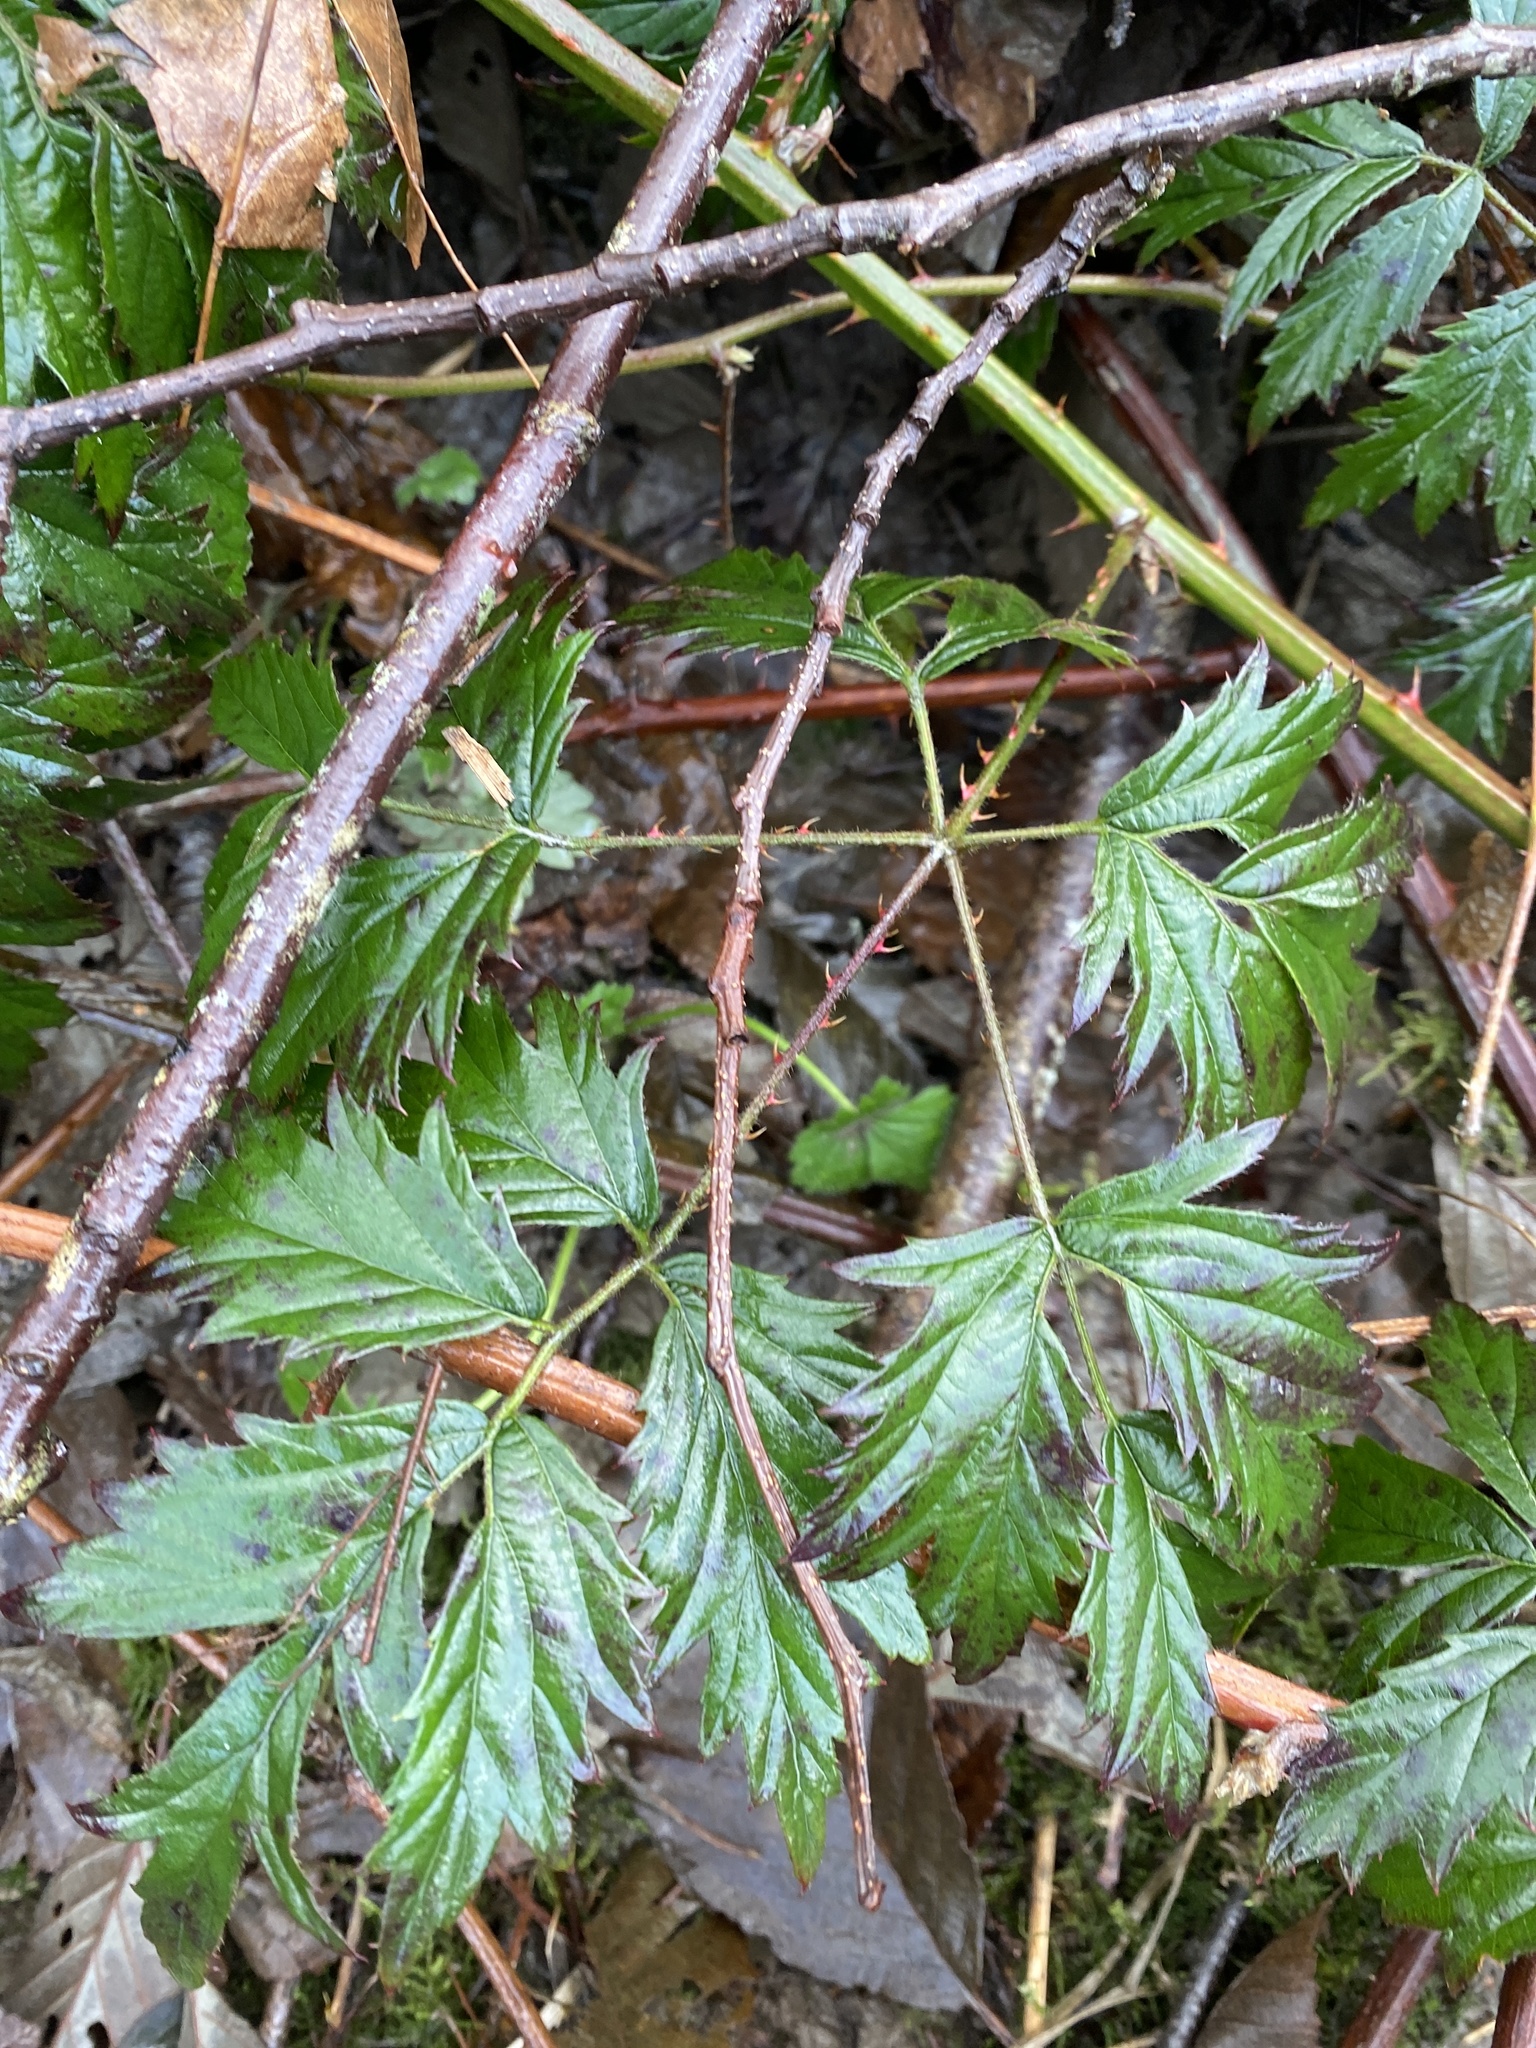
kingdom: Plantae
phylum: Tracheophyta
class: Magnoliopsida
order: Rosales
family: Rosaceae
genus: Rubus
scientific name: Rubus laciniatus
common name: Evergreen blackberry
